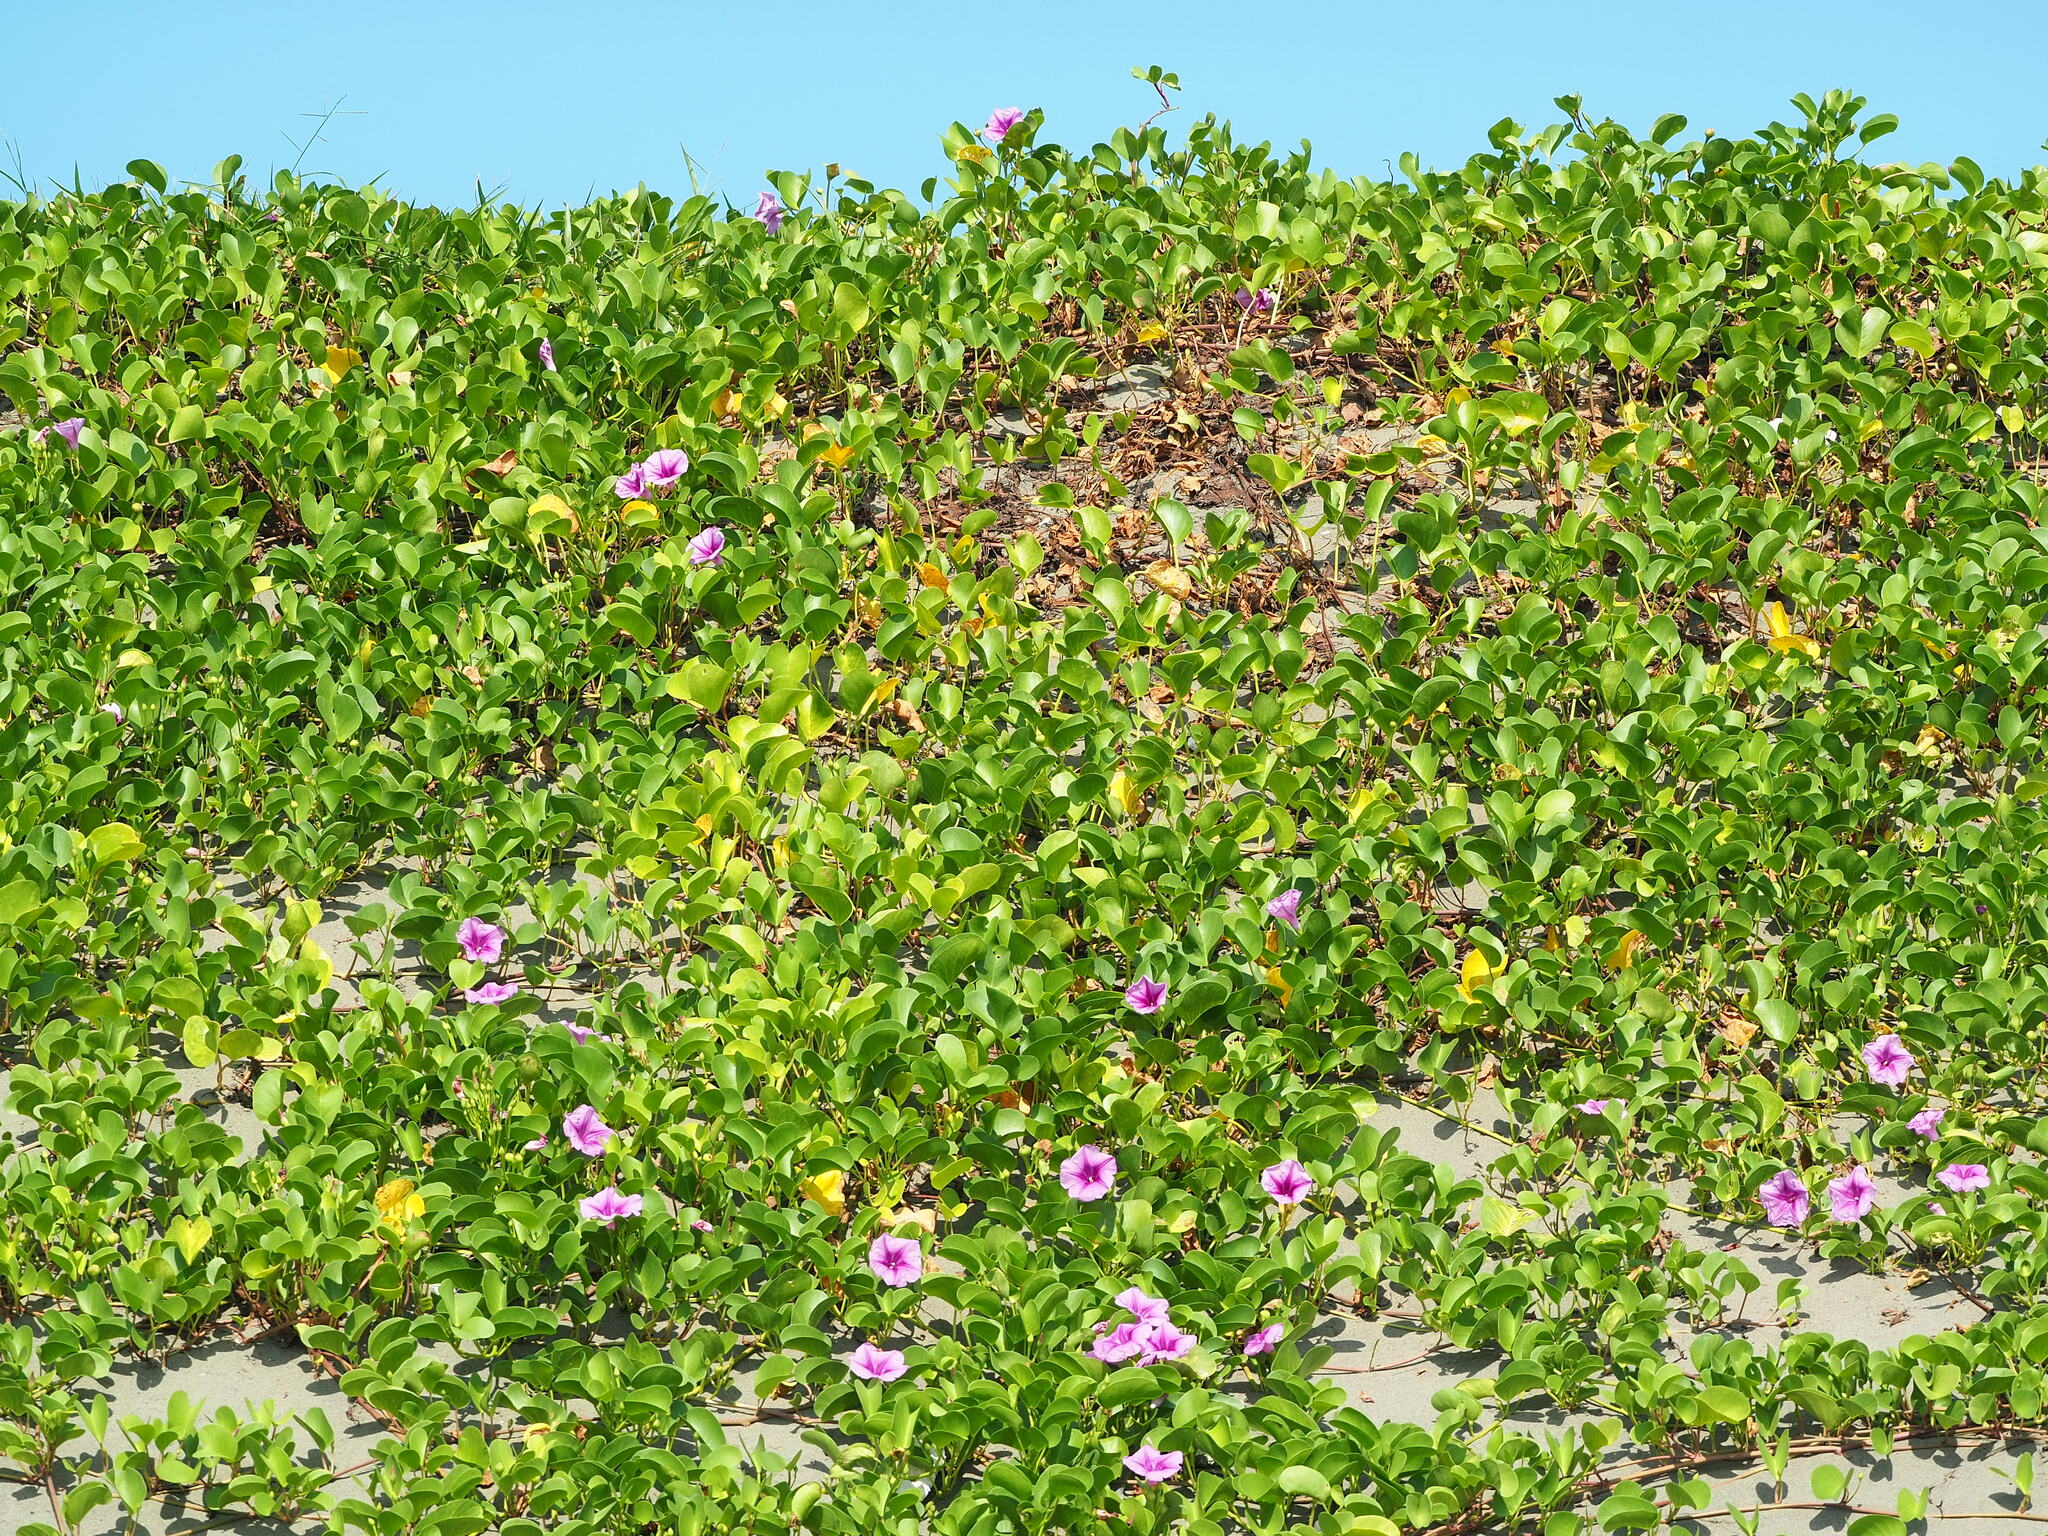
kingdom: Plantae
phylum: Tracheophyta
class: Magnoliopsida
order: Solanales
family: Convolvulaceae
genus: Ipomoea
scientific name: Ipomoea pes-caprae
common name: Beach morning glory
